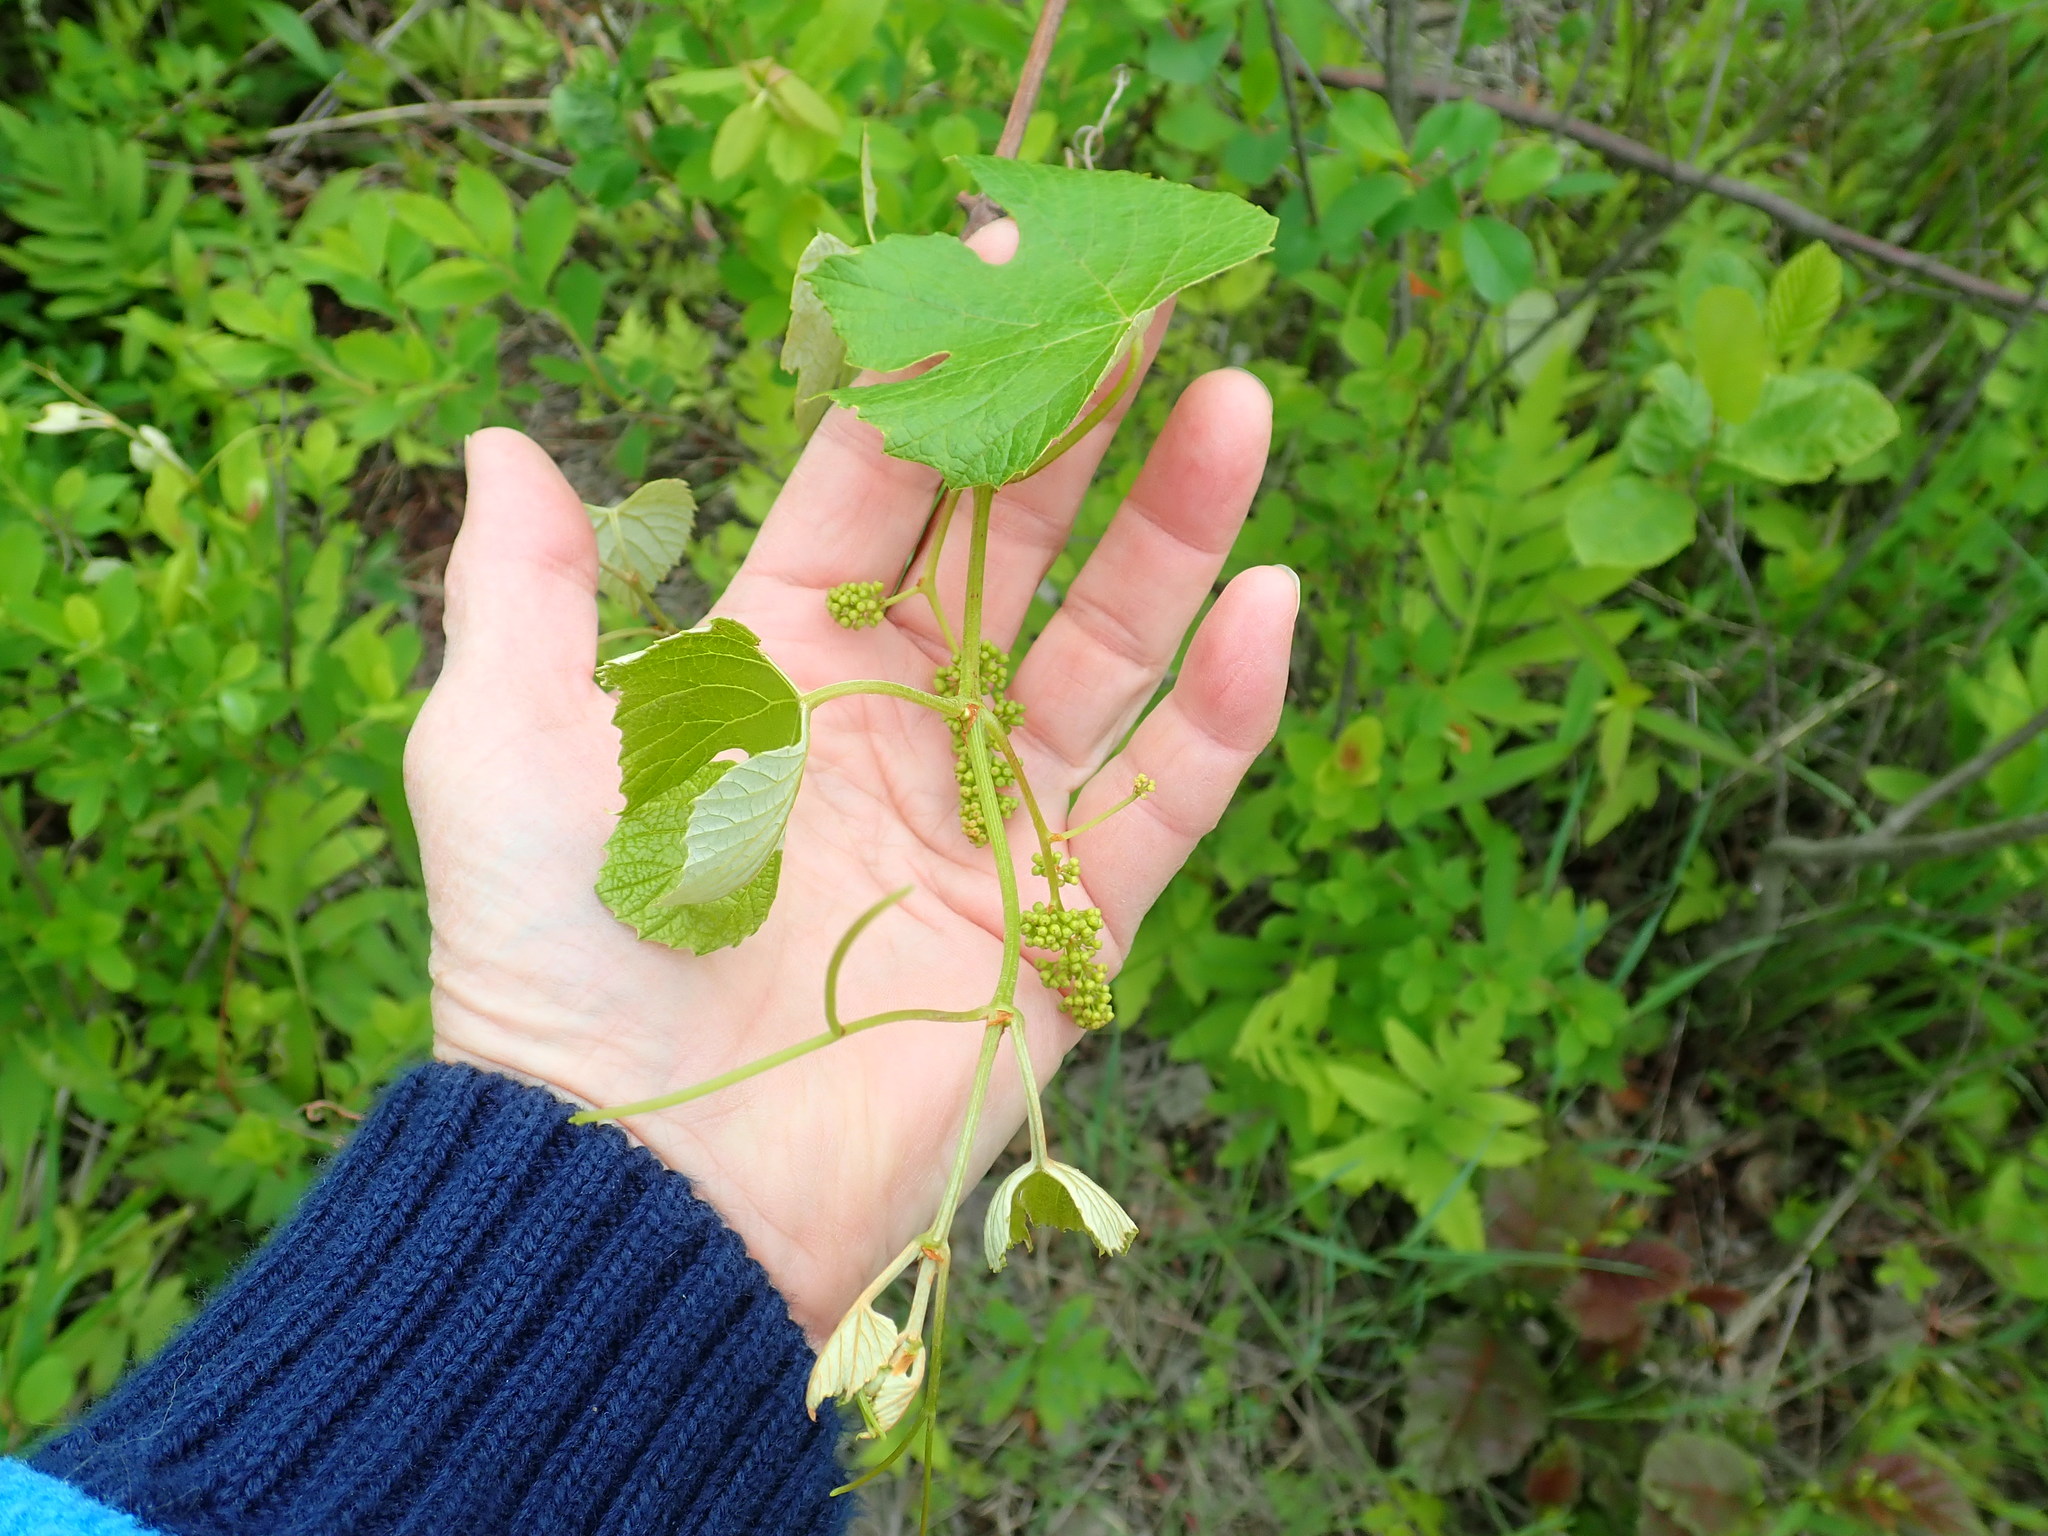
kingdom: Plantae
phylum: Tracheophyta
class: Magnoliopsida
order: Vitales
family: Vitaceae
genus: Vitis
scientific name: Vitis labrusca
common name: Concord grape
